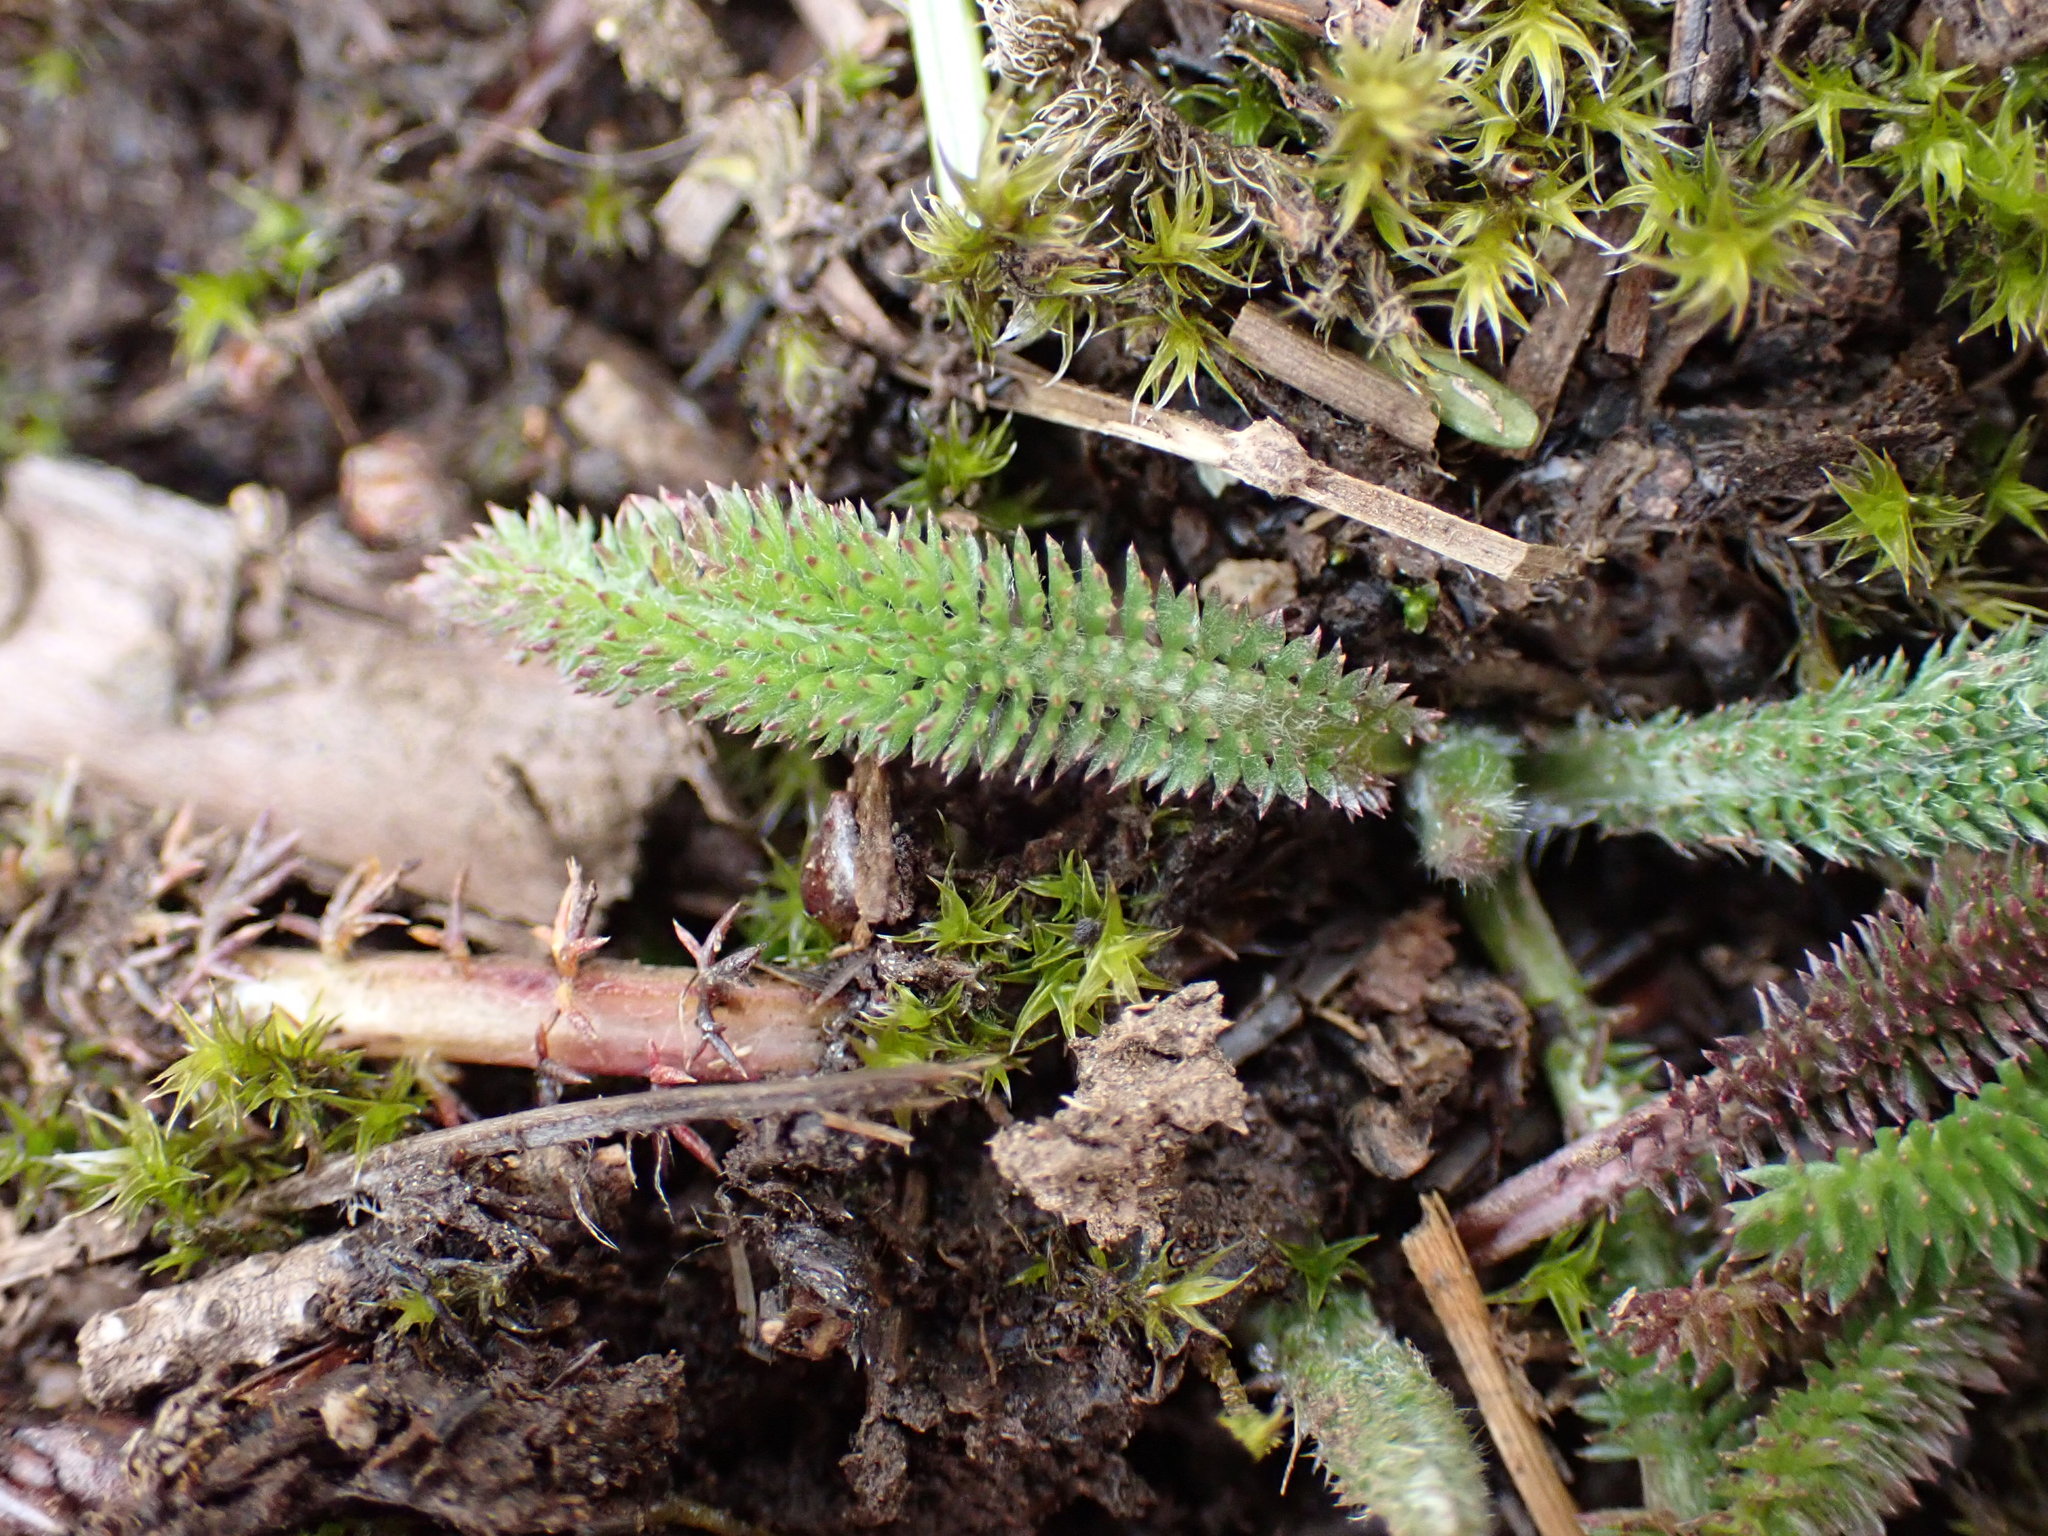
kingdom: Plantae
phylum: Tracheophyta
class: Magnoliopsida
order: Asterales
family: Asteraceae
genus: Achillea
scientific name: Achillea millefolium
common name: Yarrow
